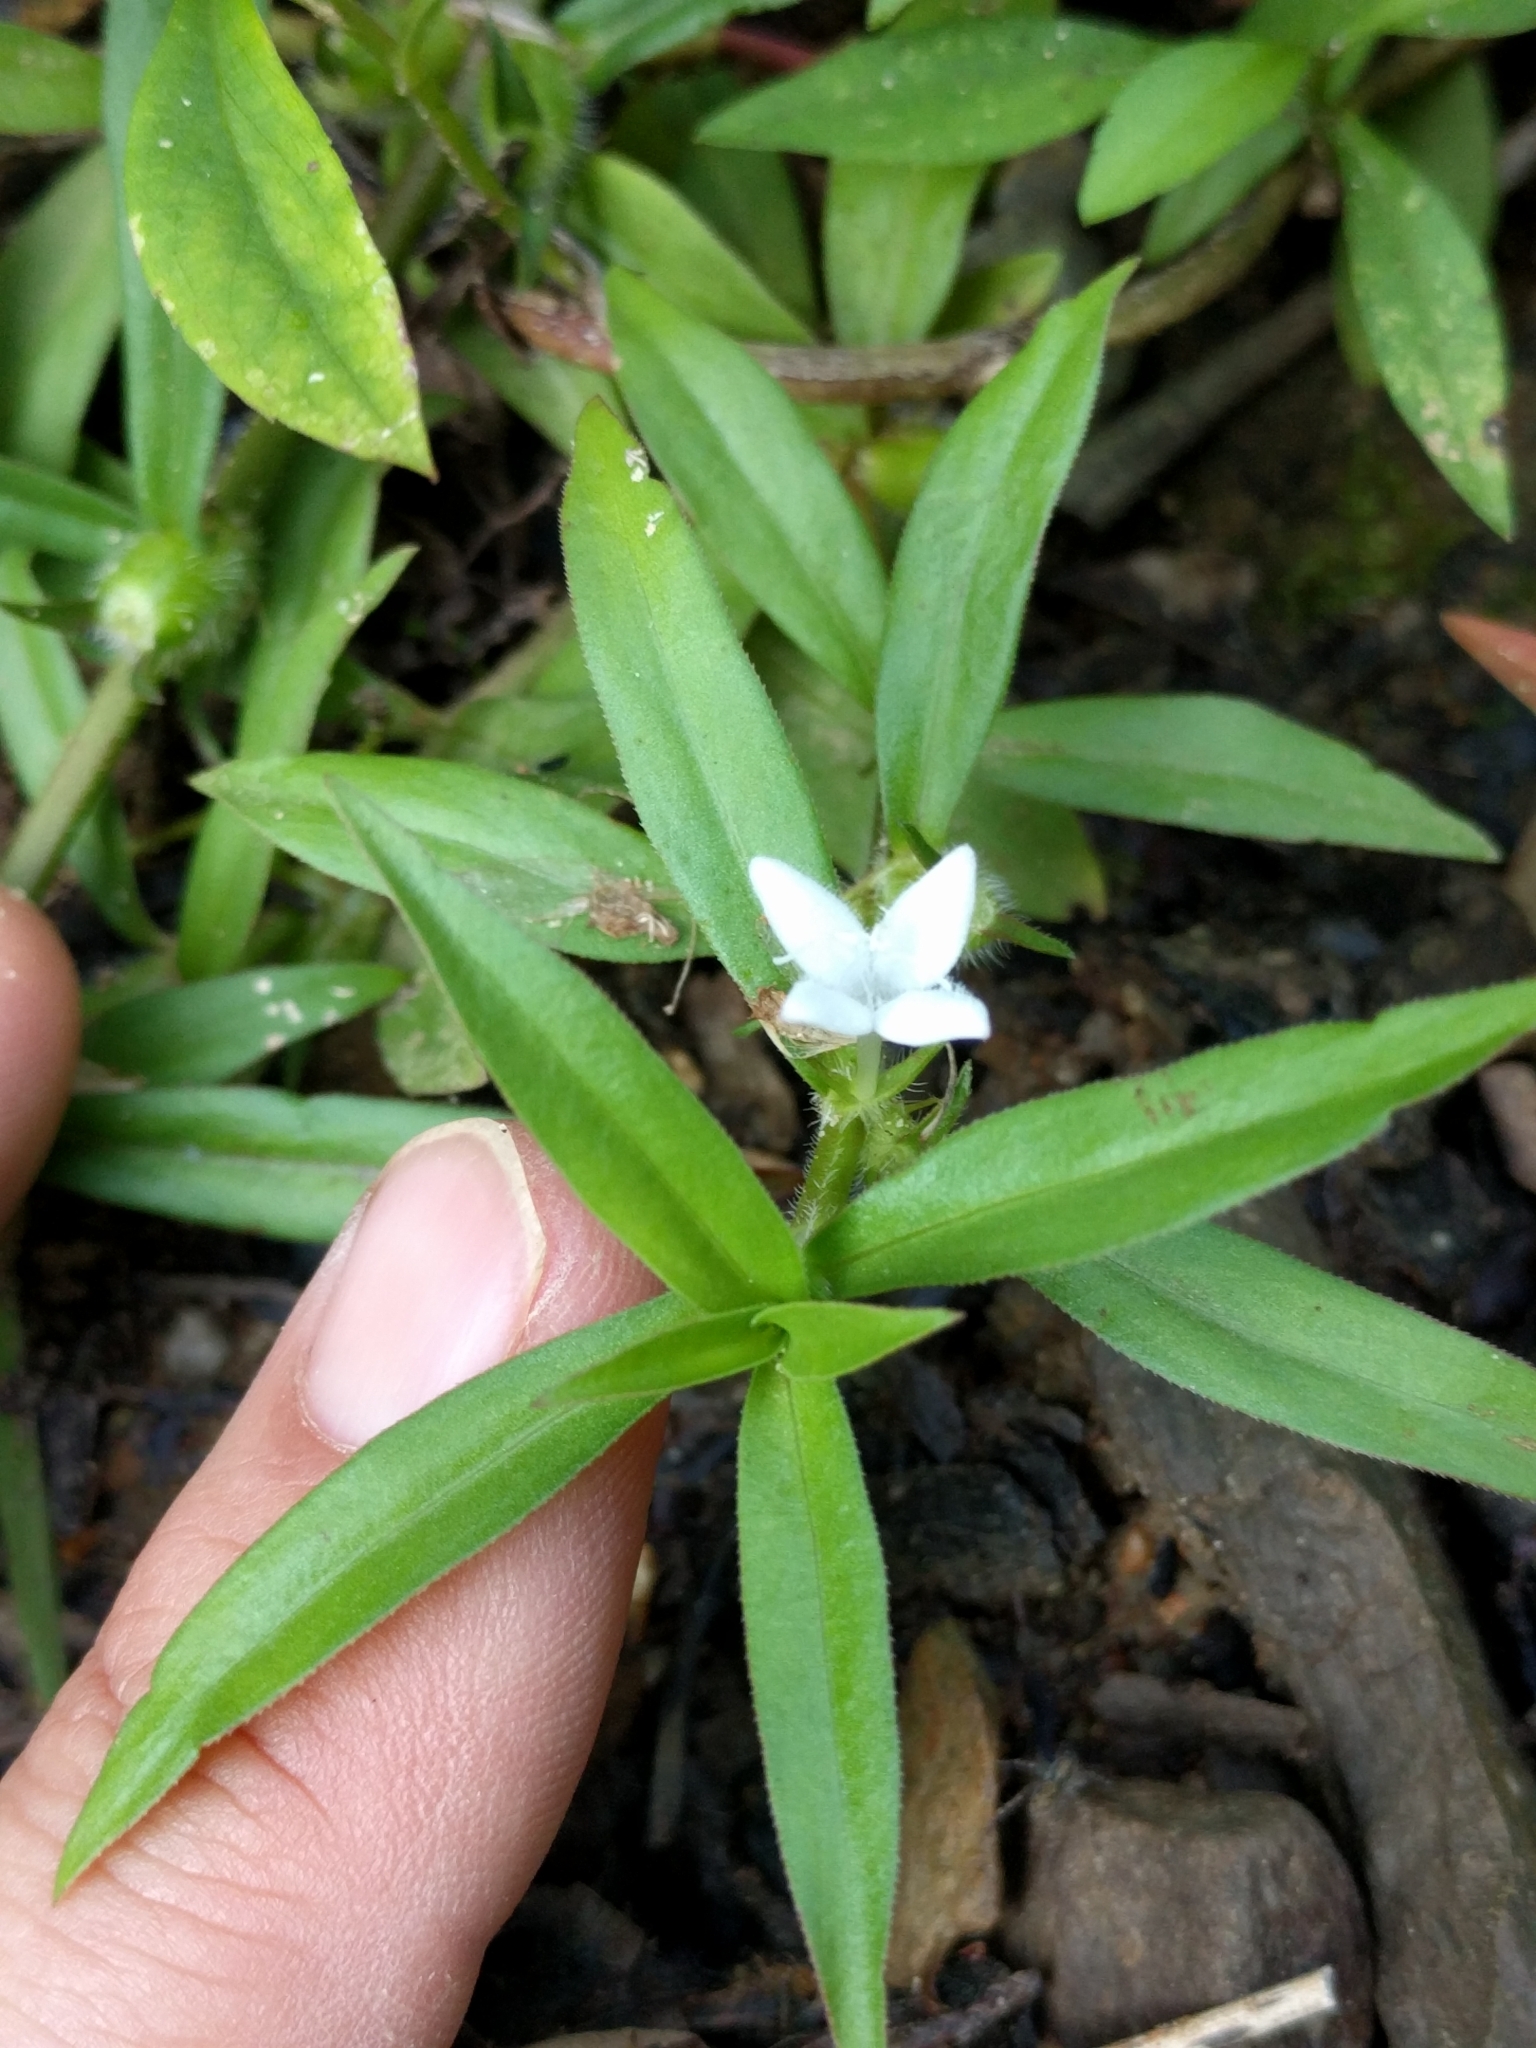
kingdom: Plantae
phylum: Tracheophyta
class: Magnoliopsida
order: Gentianales
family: Rubiaceae
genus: Diodia
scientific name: Diodia virginiana
